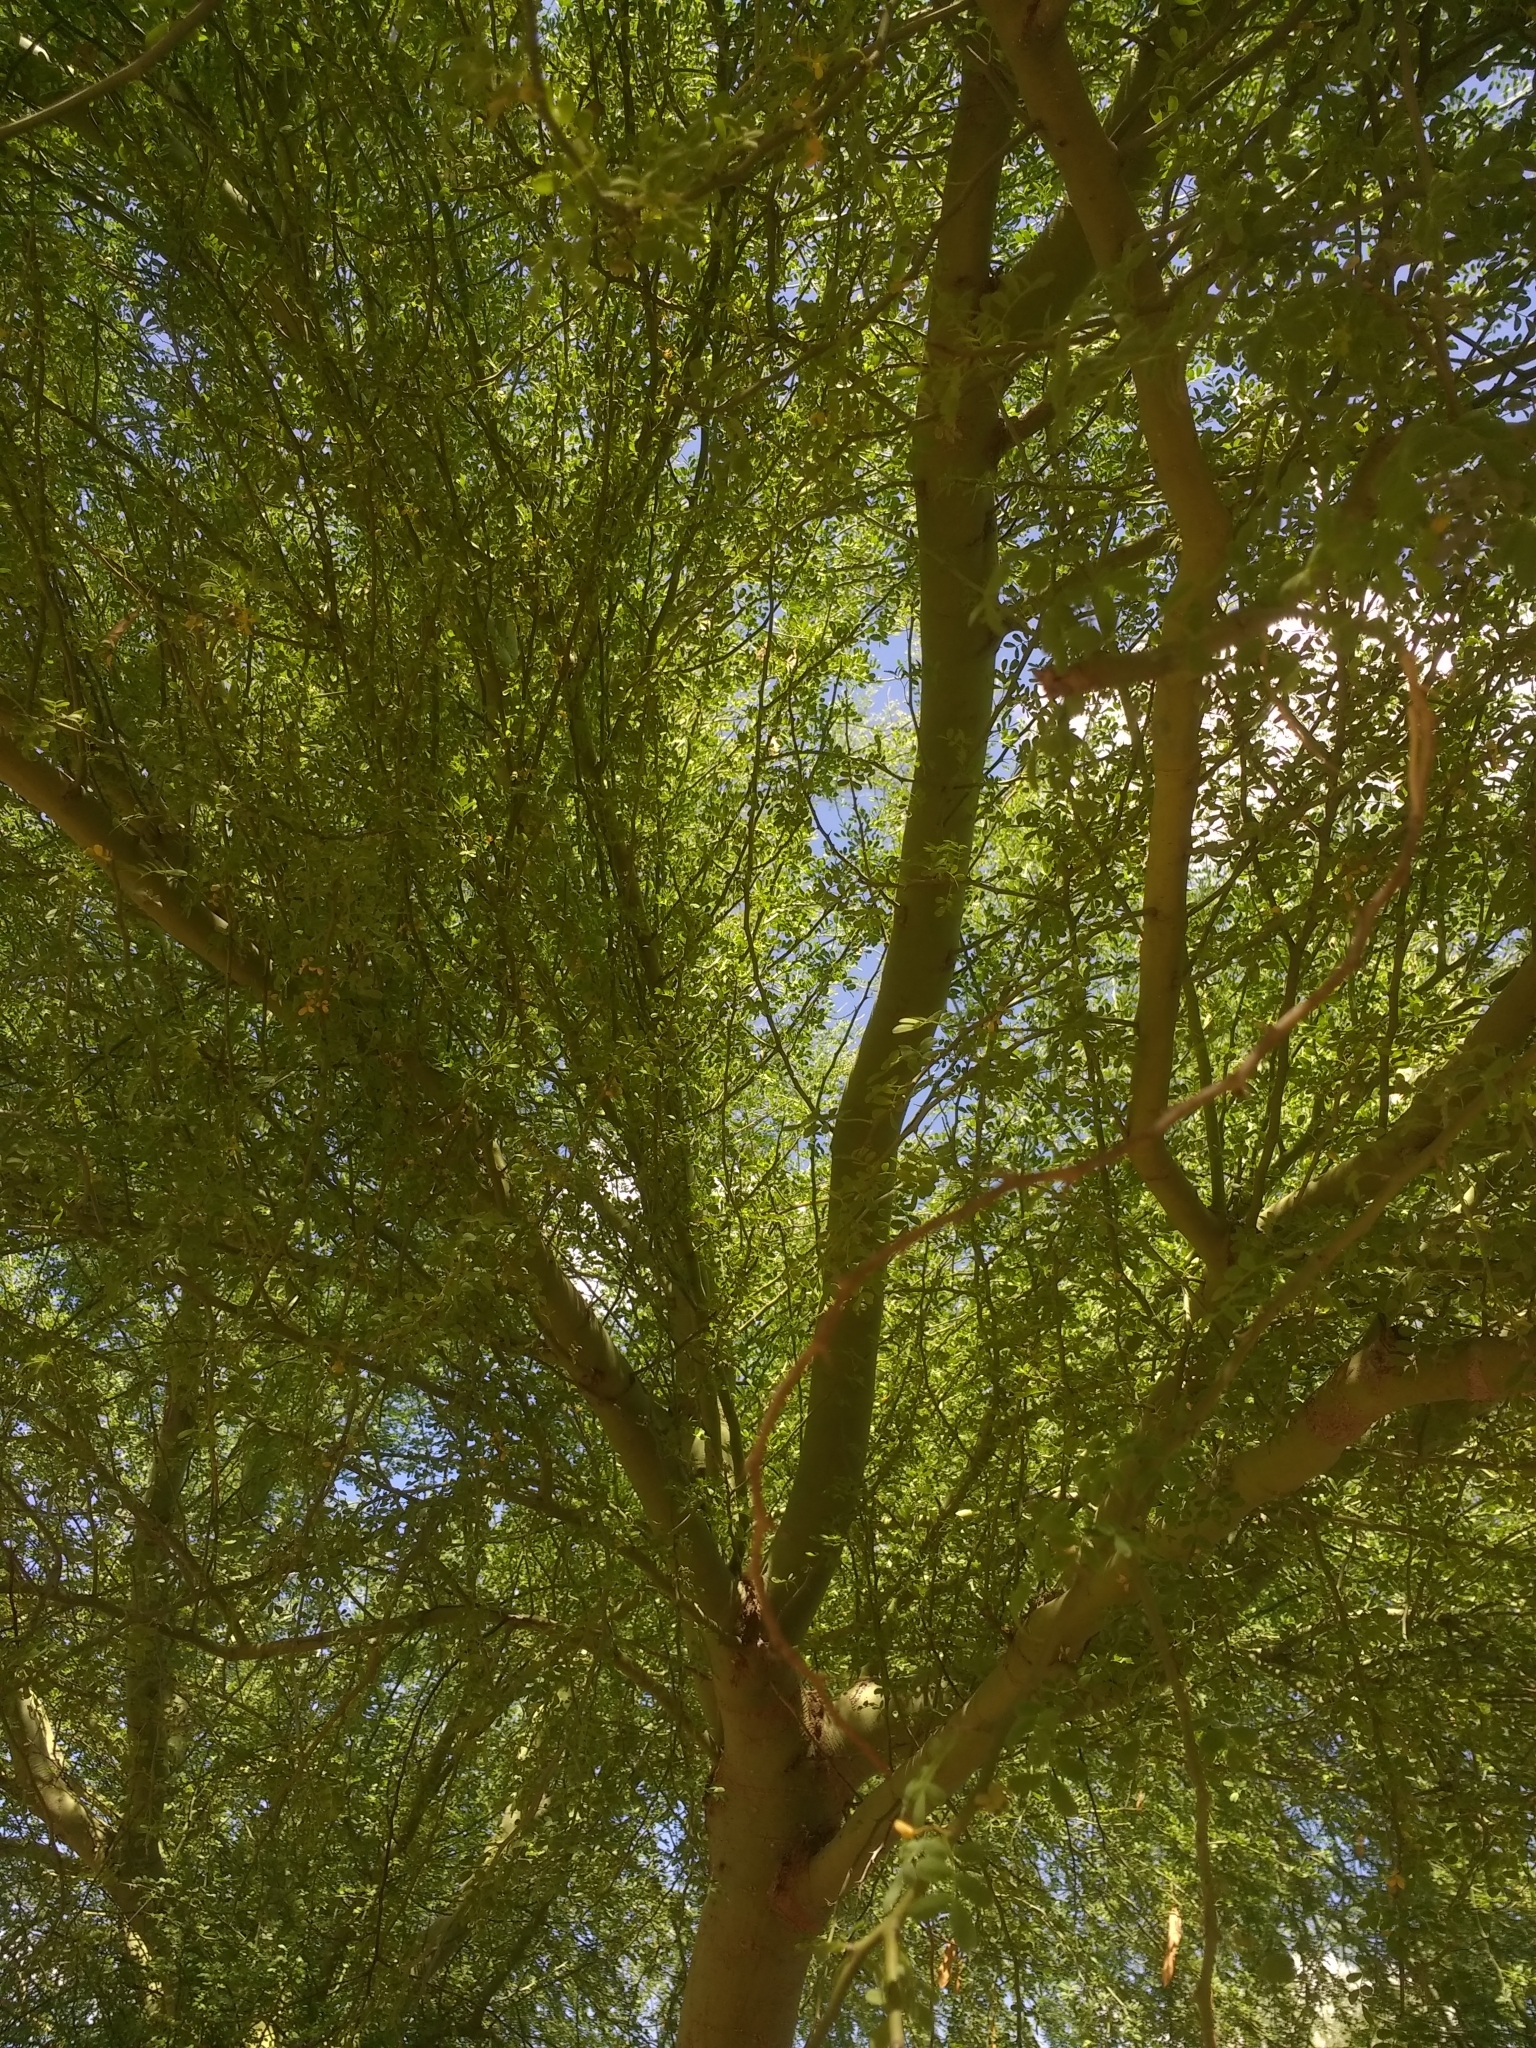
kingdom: Plantae
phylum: Tracheophyta
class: Magnoliopsida
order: Fabales
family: Fabaceae
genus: Parkinsonia
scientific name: Parkinsonia florida
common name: Blue paloverde
